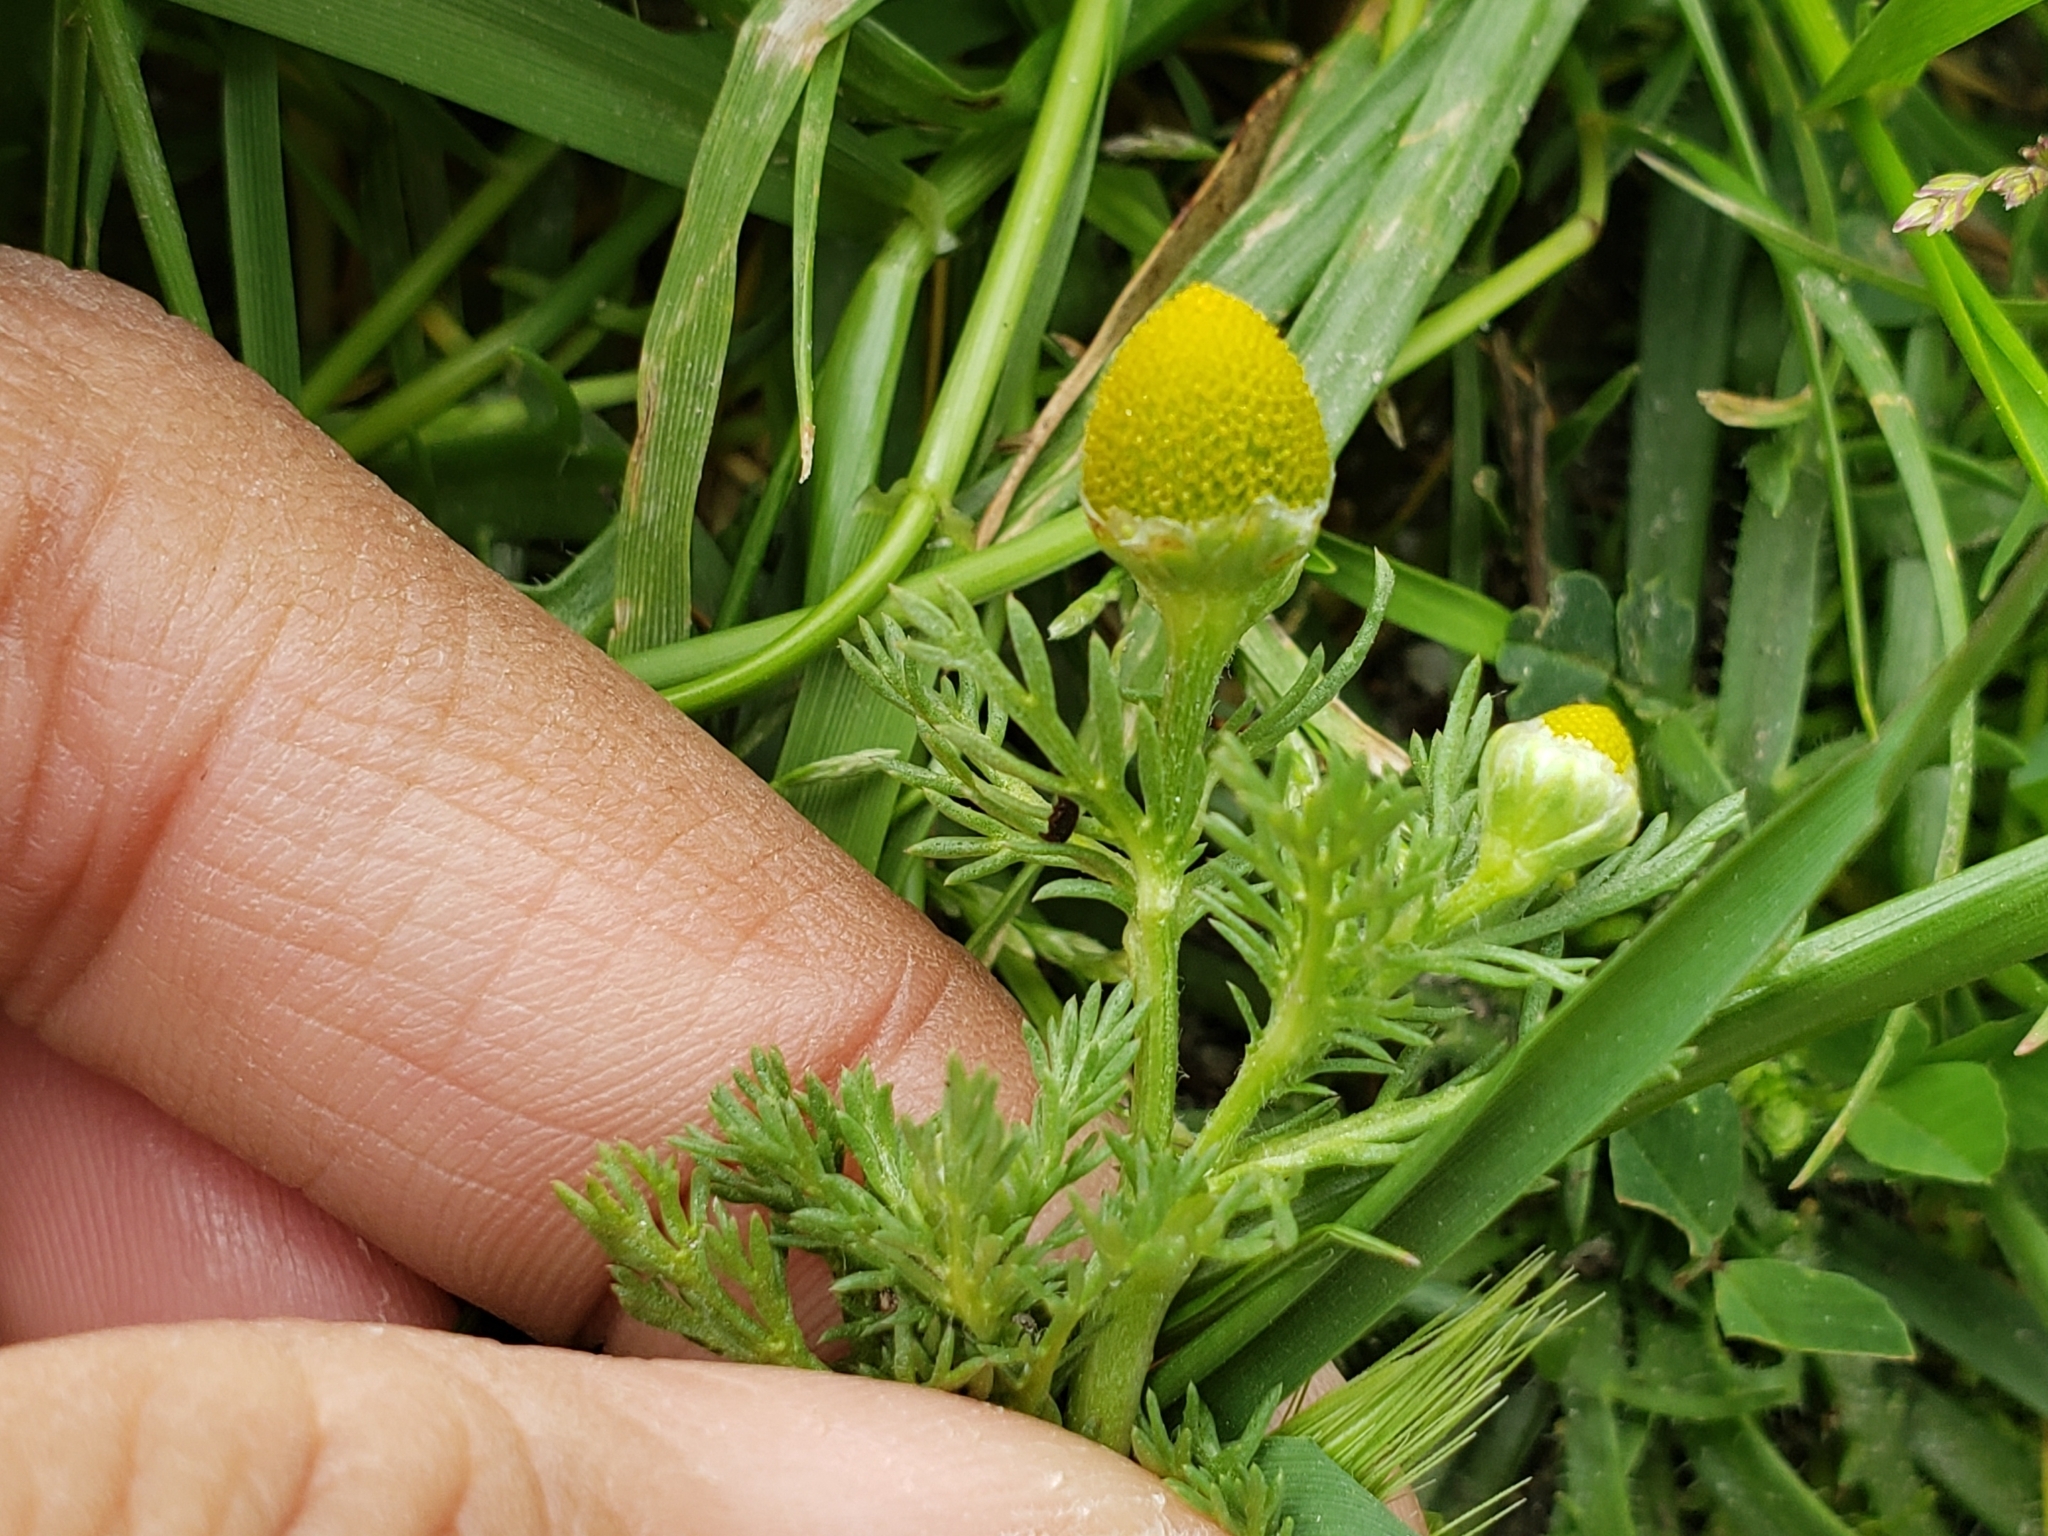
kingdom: Plantae
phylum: Tracheophyta
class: Magnoliopsida
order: Asterales
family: Asteraceae
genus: Matricaria
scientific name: Matricaria discoidea
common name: Disc mayweed
